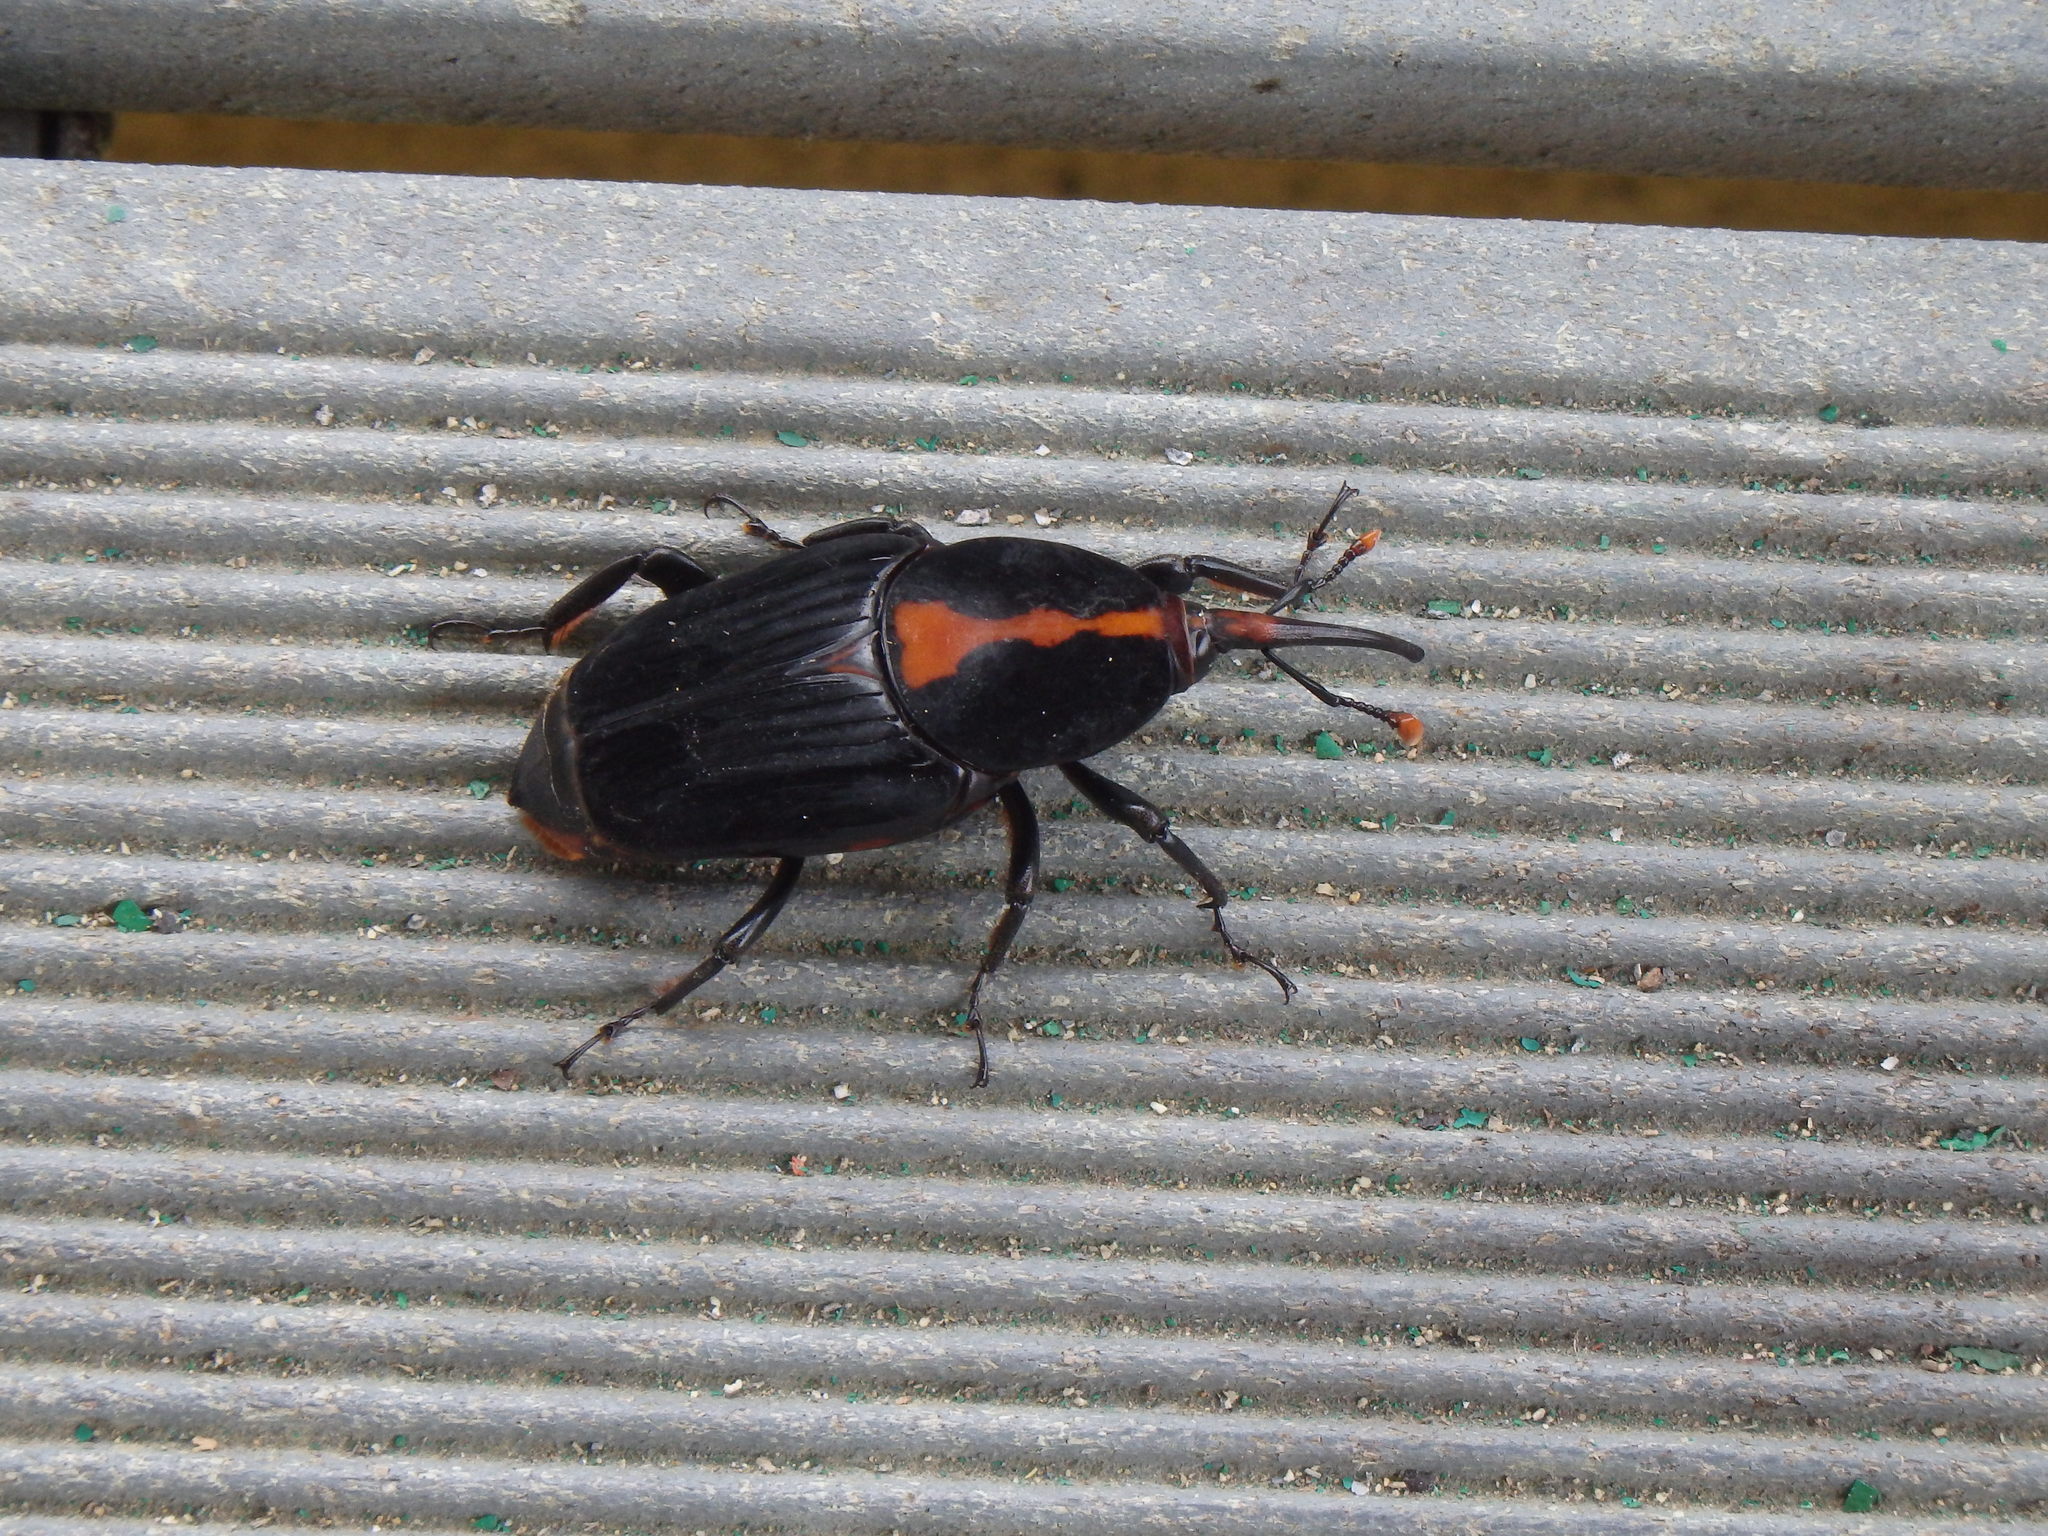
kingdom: Animalia
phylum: Arthropoda
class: Insecta
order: Coleoptera
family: Dryophthoridae
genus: Rhynchophorus
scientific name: Rhynchophorus vulneratus
